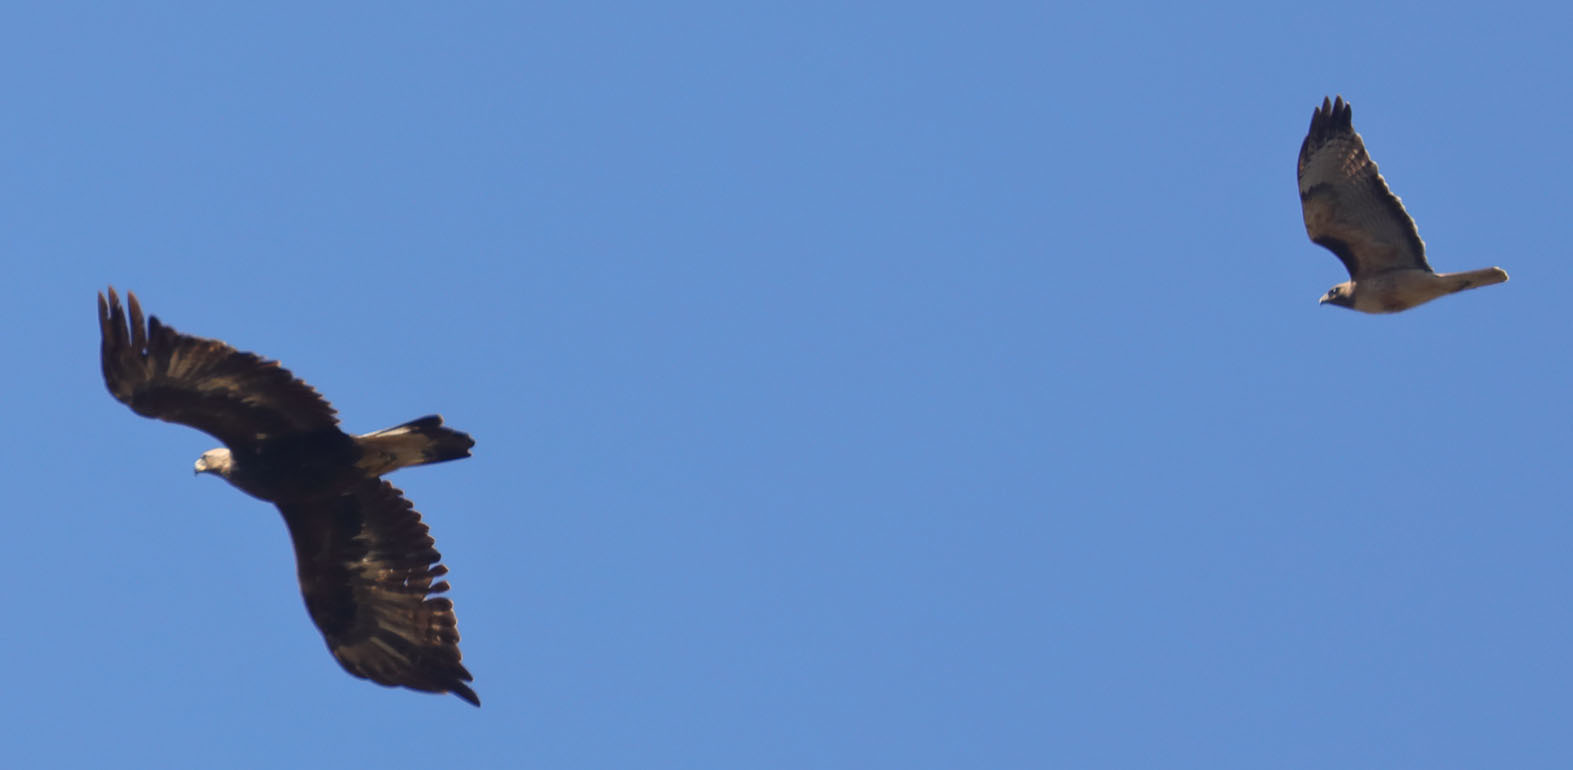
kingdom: Animalia
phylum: Chordata
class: Aves
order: Accipitriformes
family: Accipitridae
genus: Buteo
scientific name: Buteo jamaicensis
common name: Red-tailed hawk
